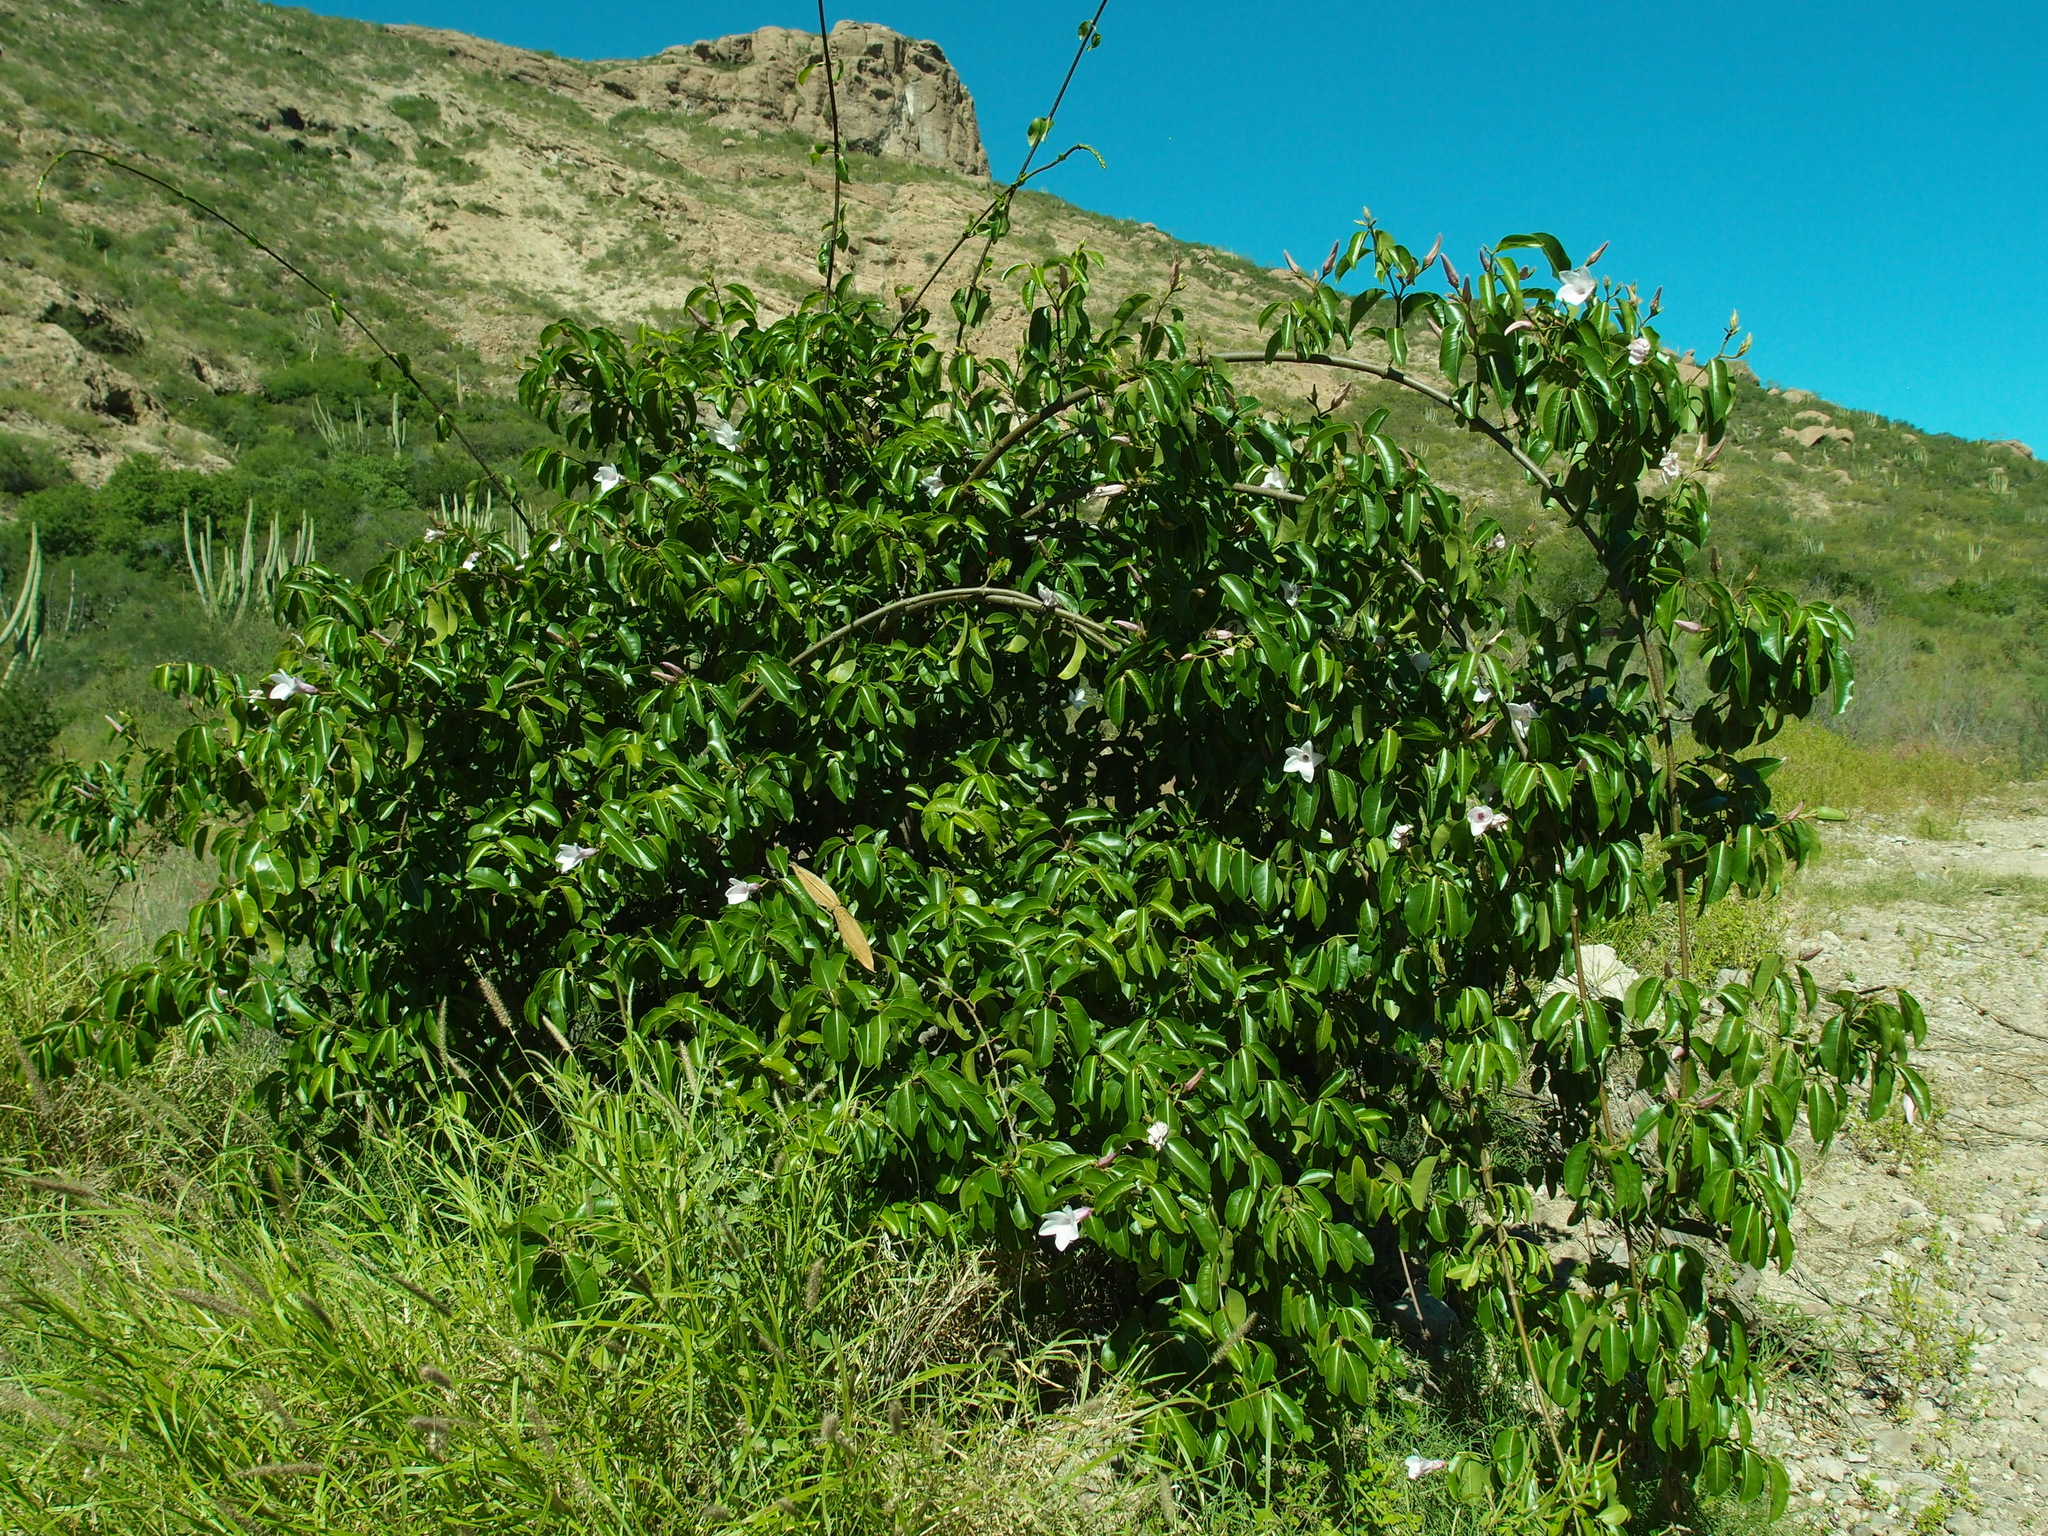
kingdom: Plantae
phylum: Tracheophyta
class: Magnoliopsida
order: Gentianales
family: Apocynaceae
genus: Cryptostegia
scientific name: Cryptostegia grandiflora
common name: Palay rubbervine
